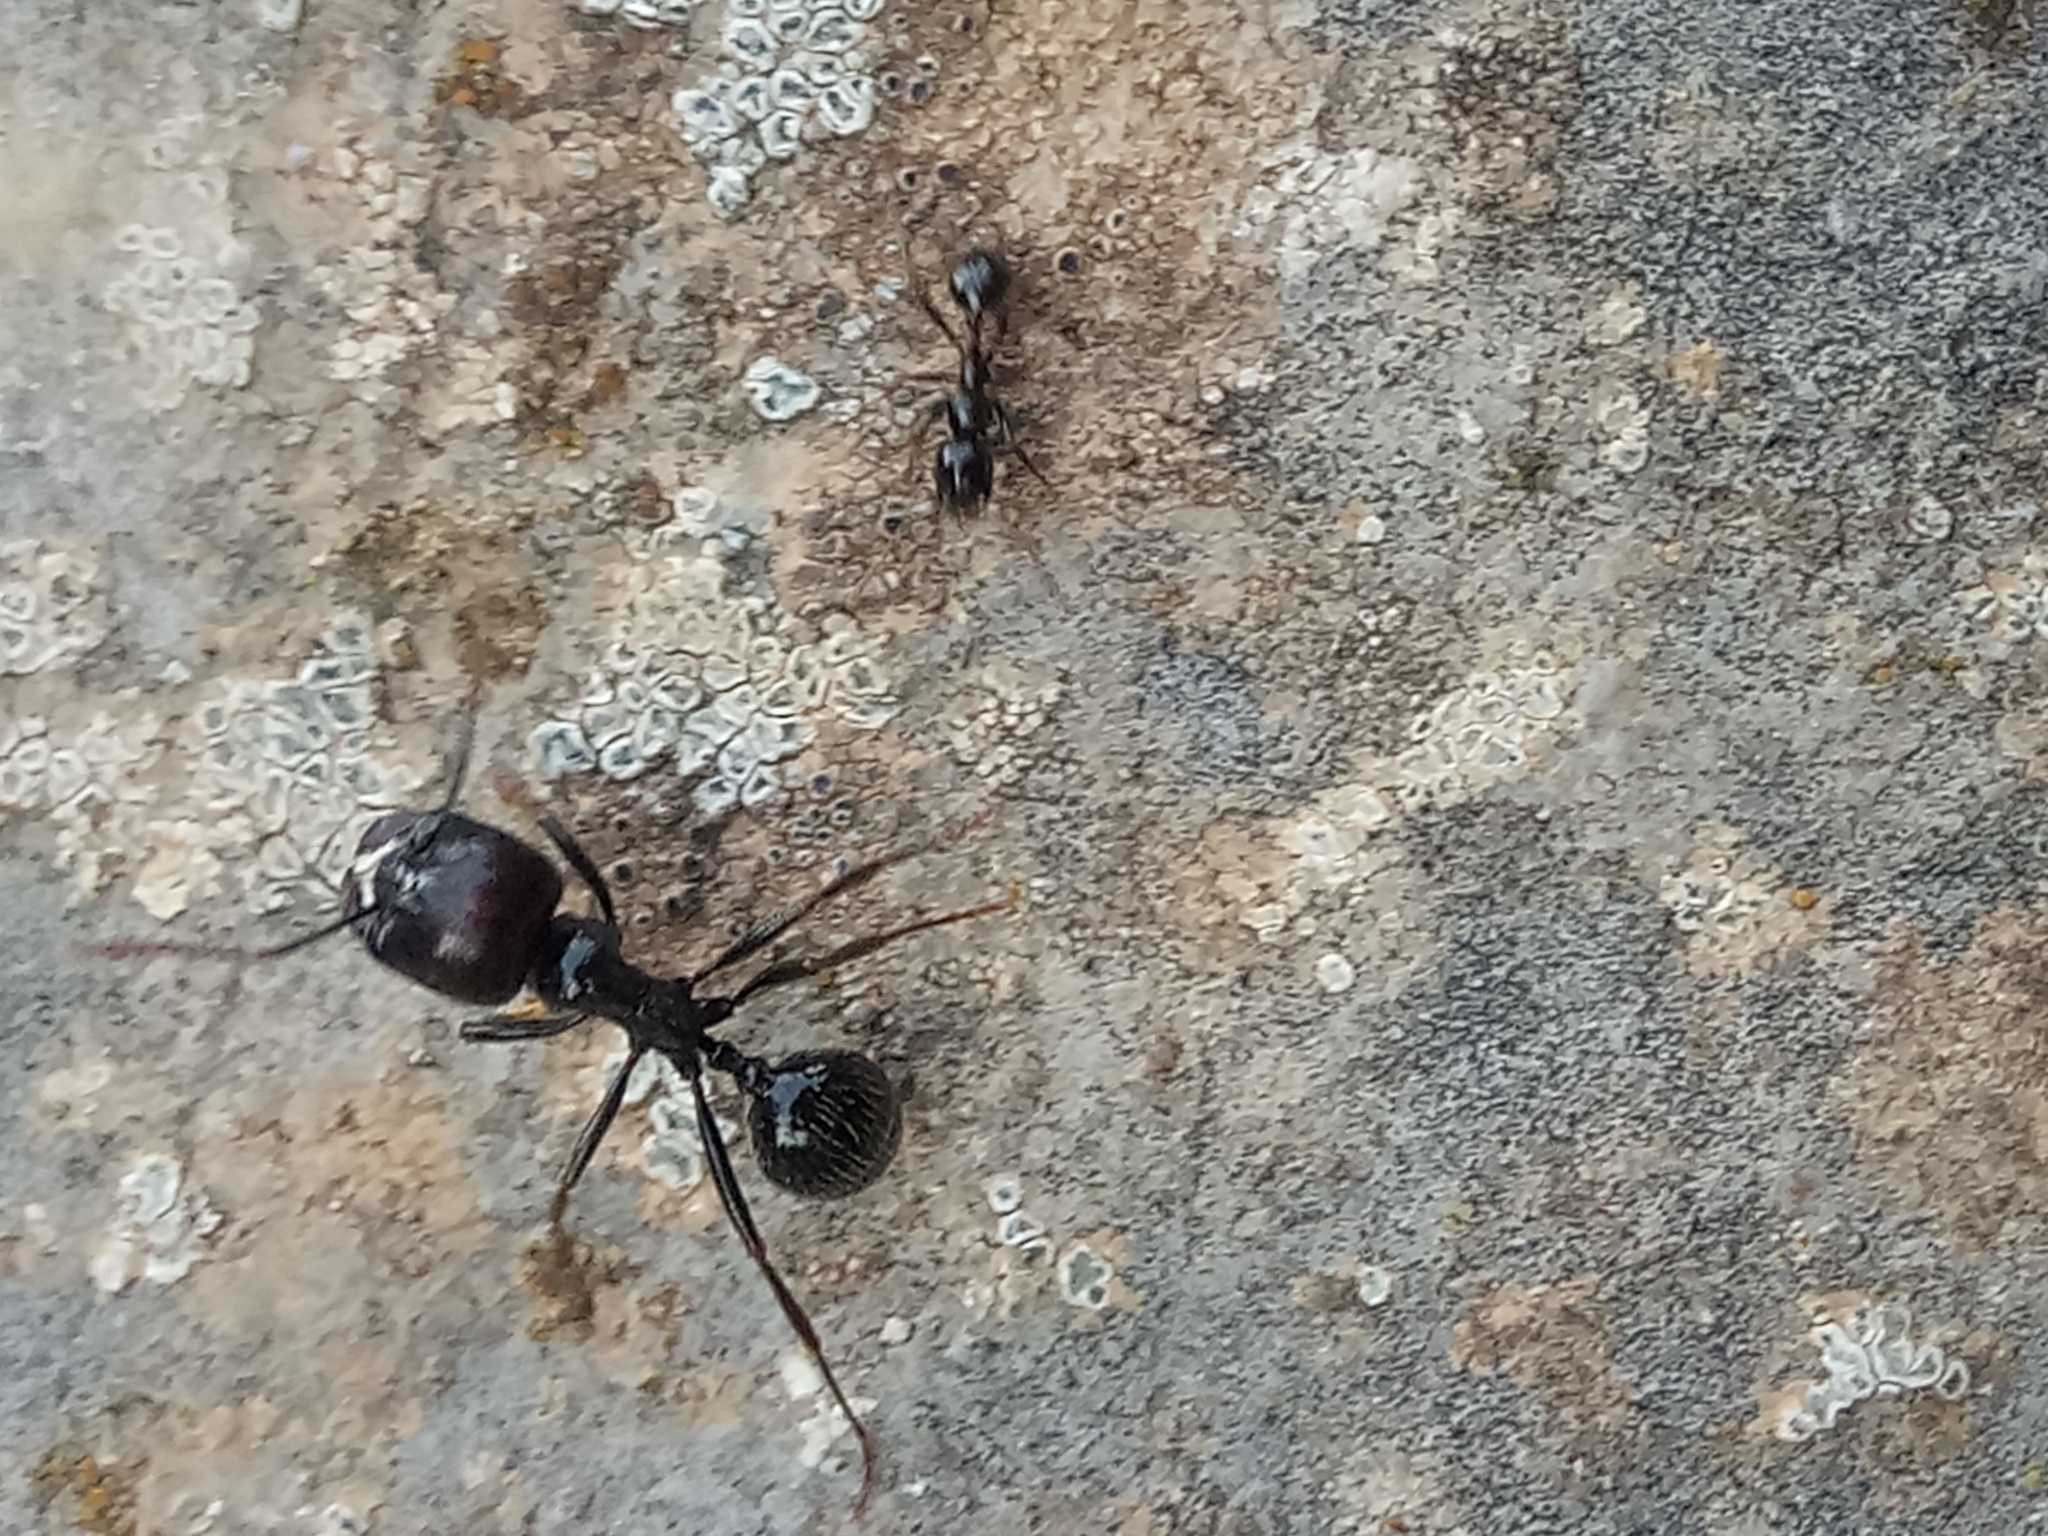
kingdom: Animalia
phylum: Arthropoda
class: Insecta
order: Hymenoptera
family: Formicidae
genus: Messor
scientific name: Messor barbarus
